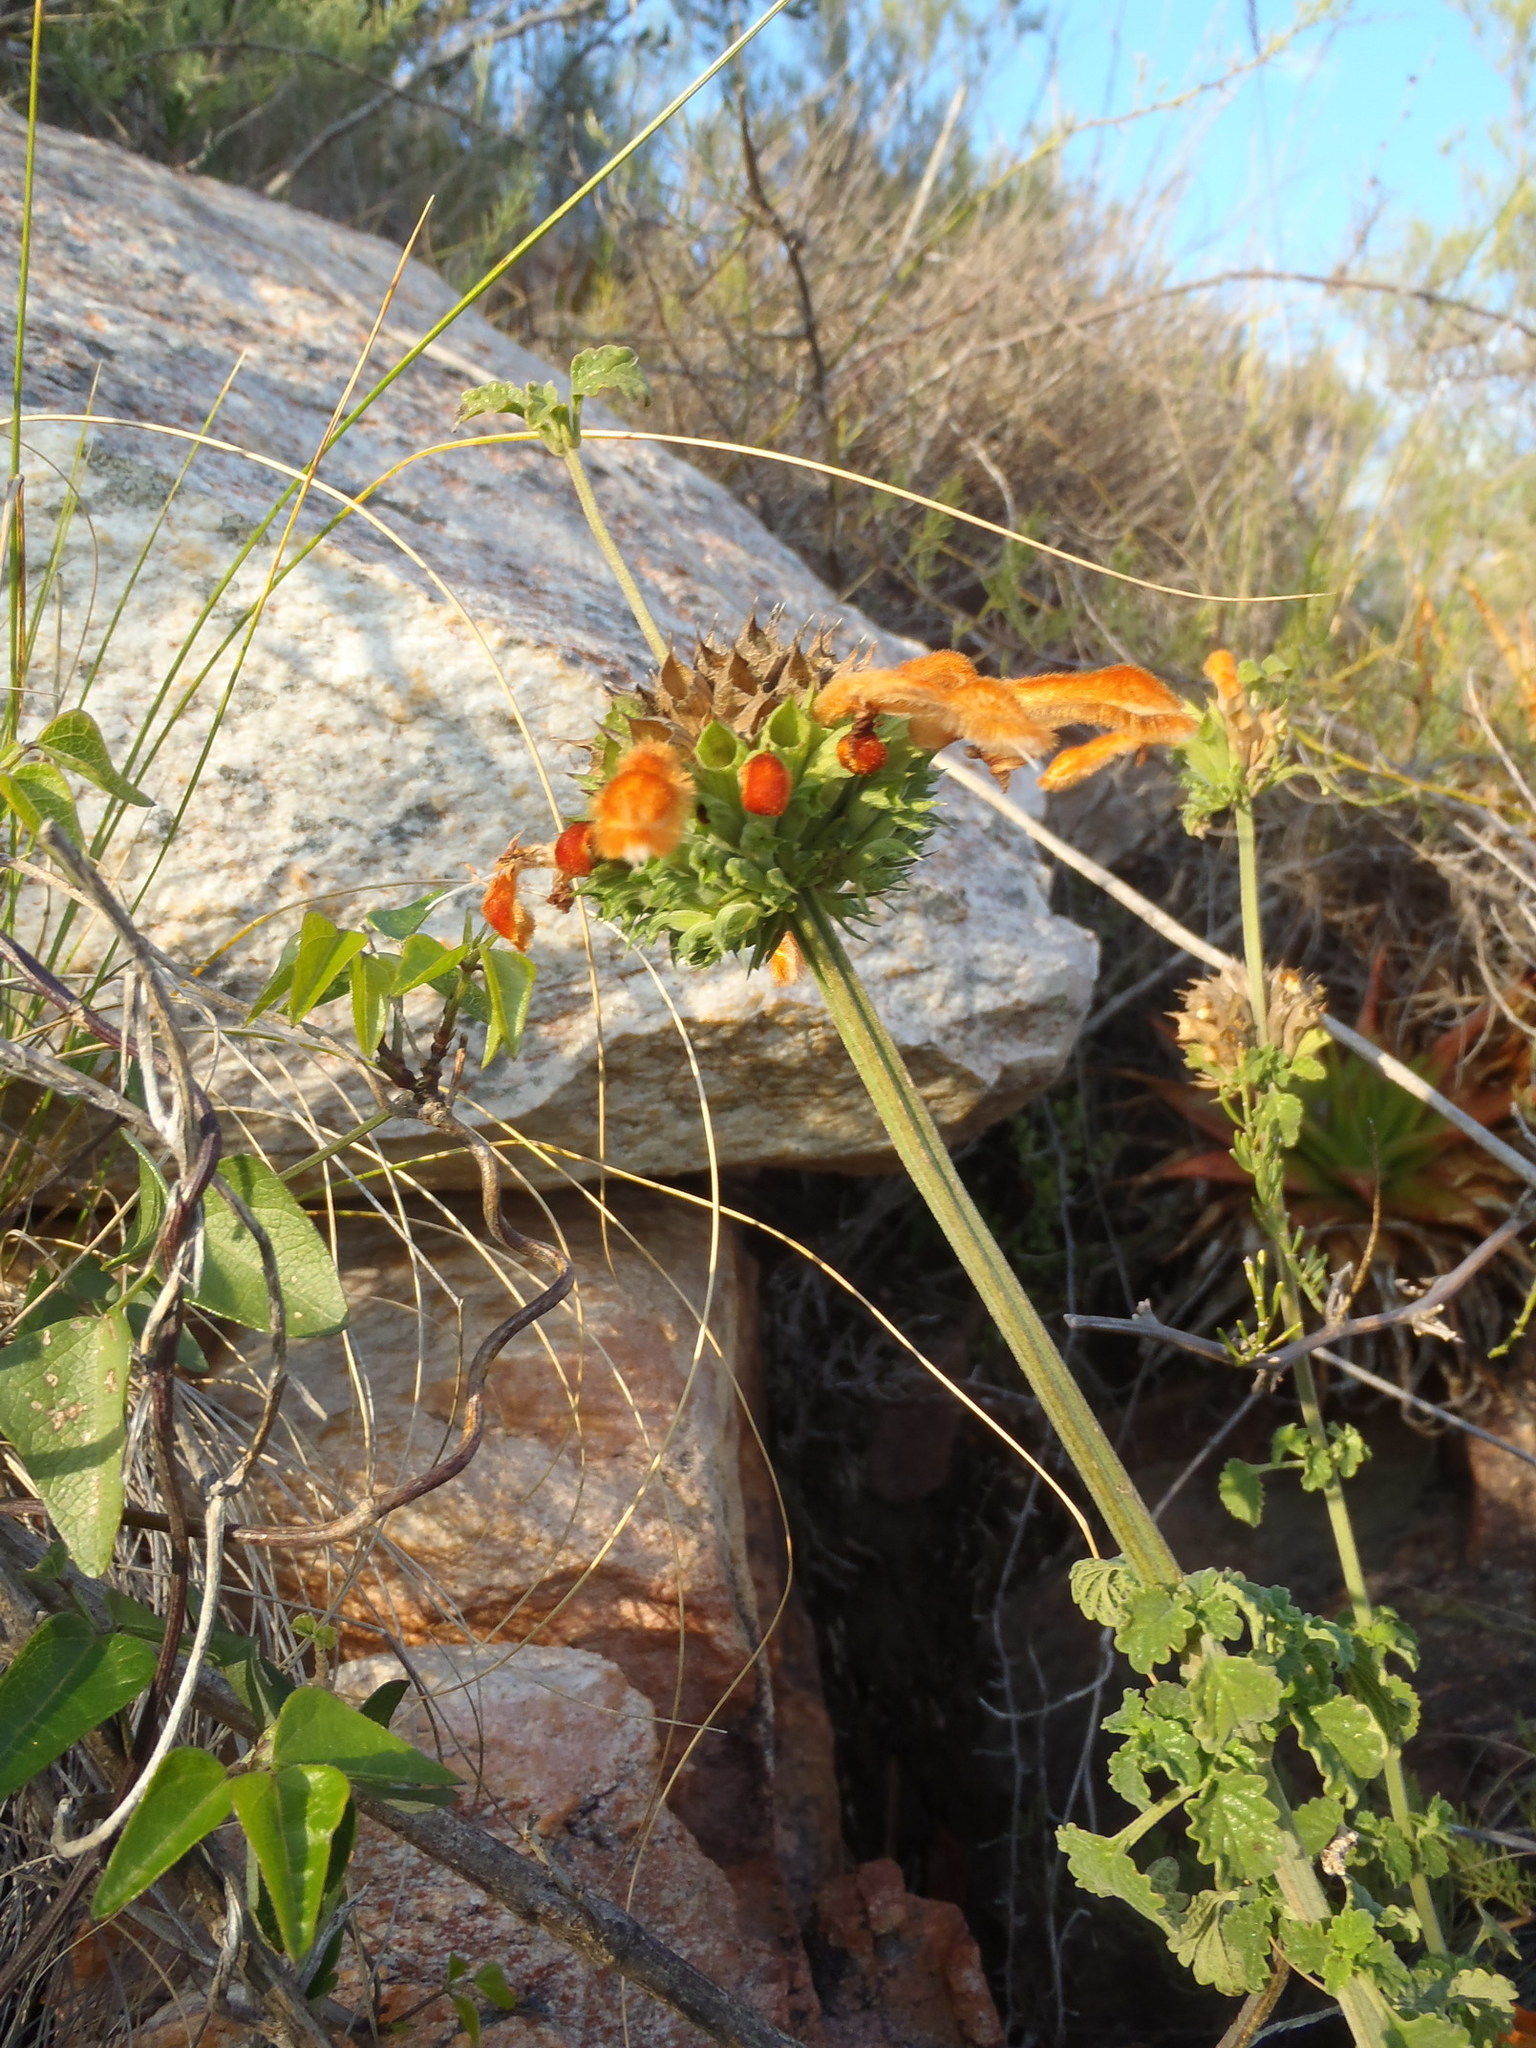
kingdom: Plantae
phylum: Tracheophyta
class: Magnoliopsida
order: Lamiales
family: Lamiaceae
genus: Leonotis
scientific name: Leonotis ocymifolia
